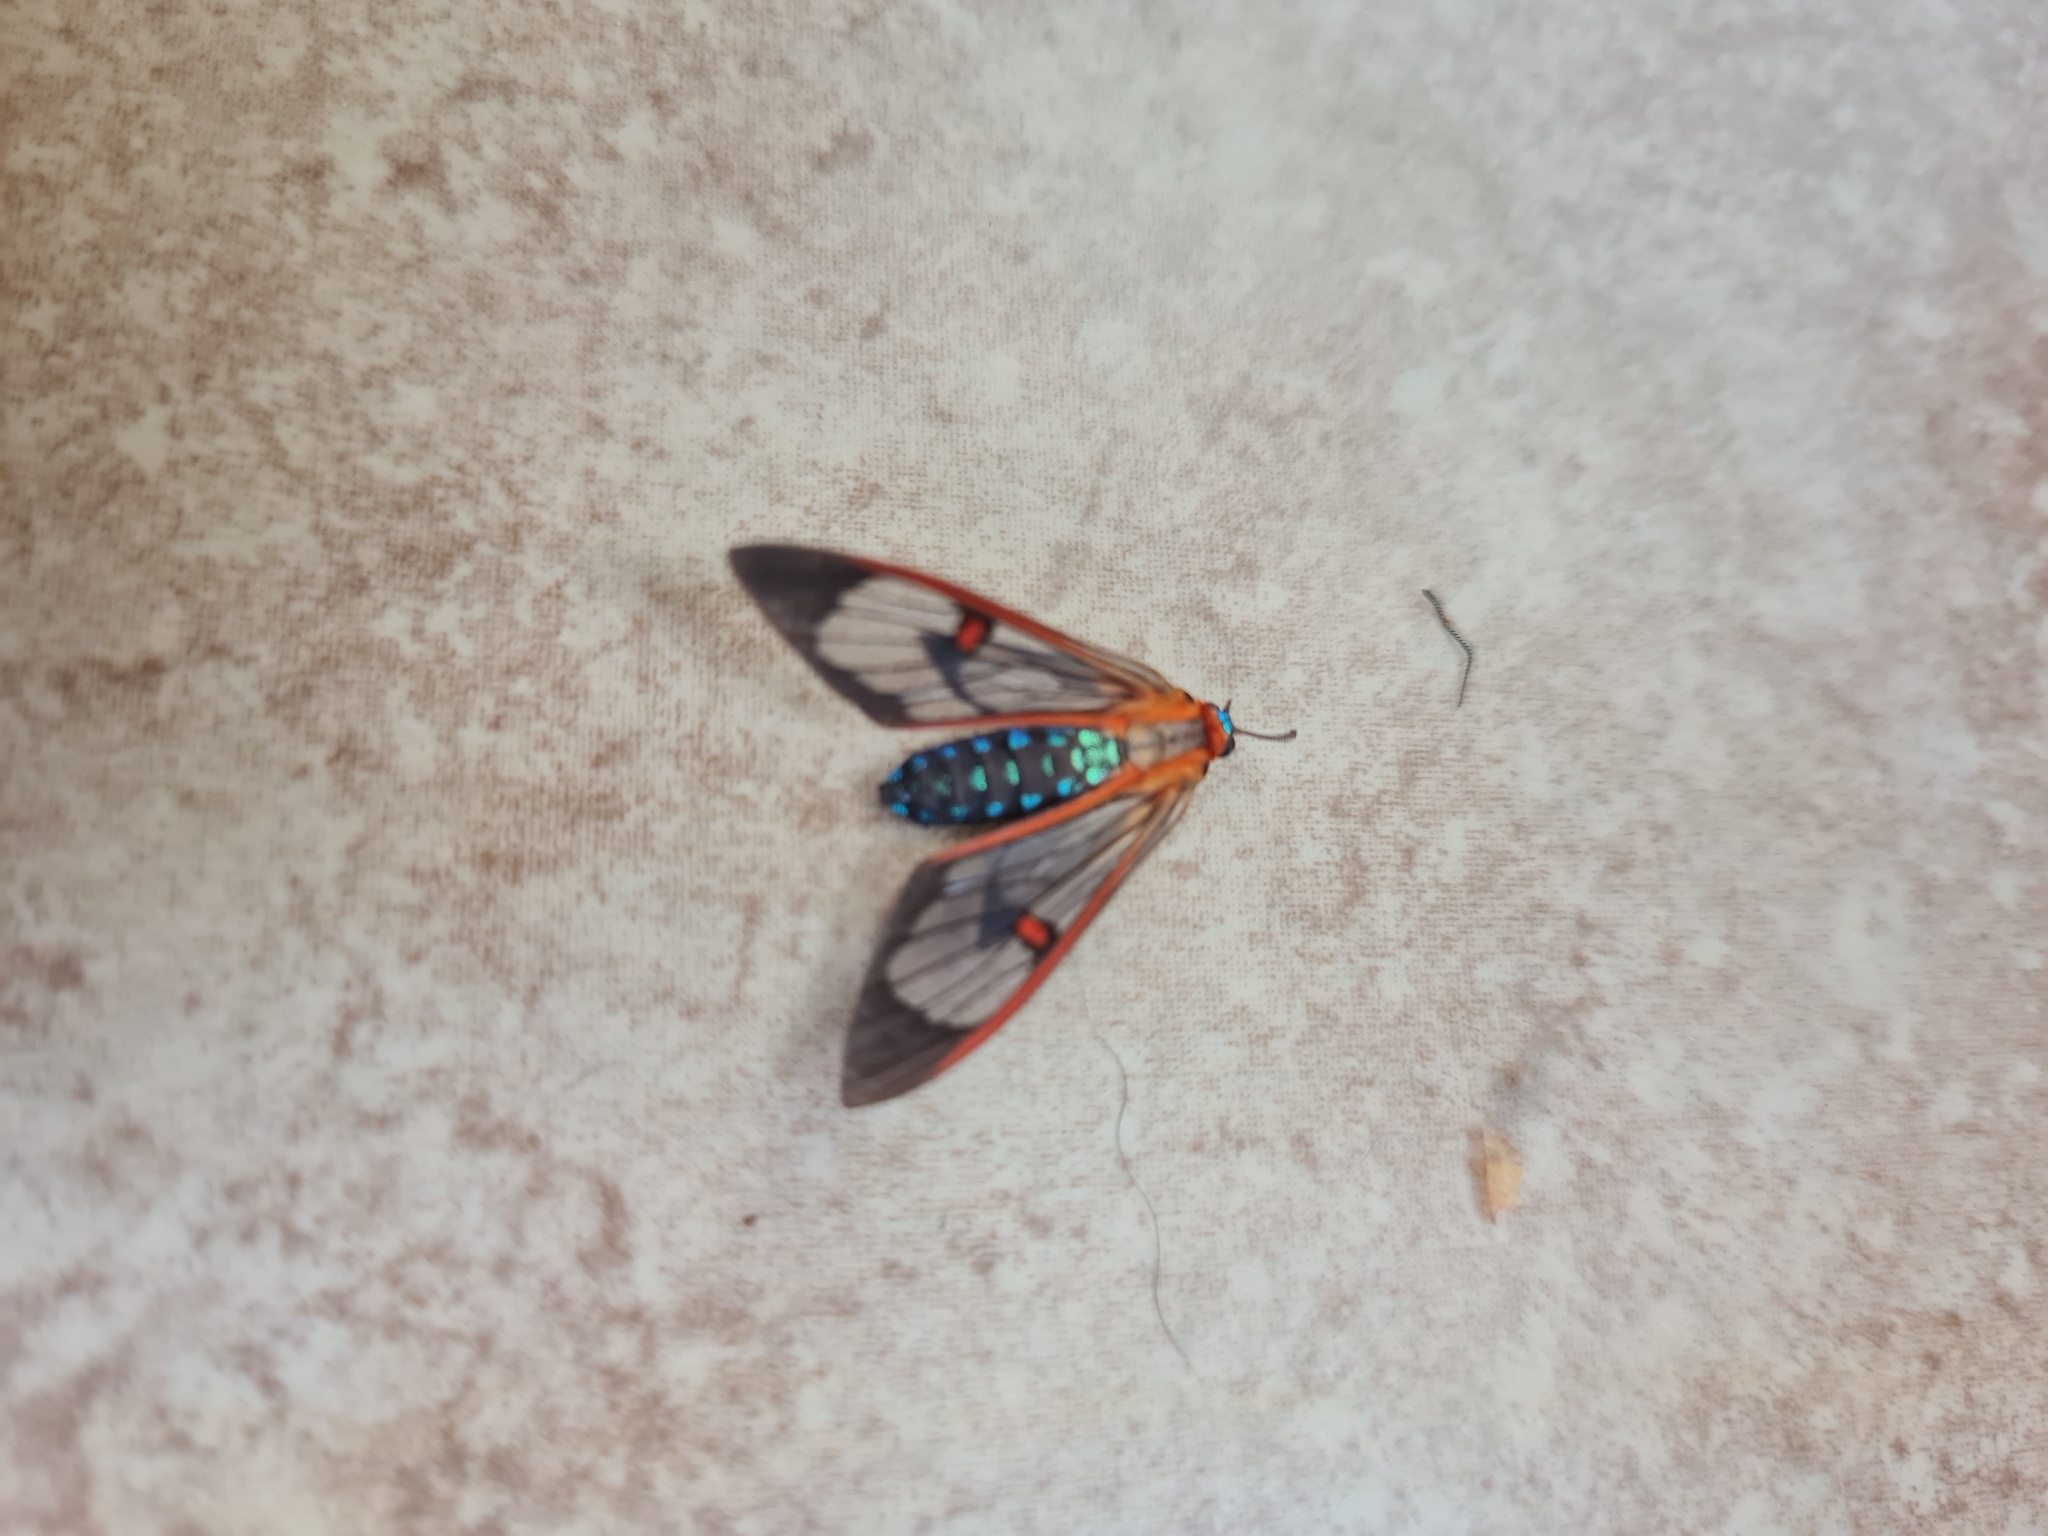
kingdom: Animalia
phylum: Arthropoda
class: Insecta
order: Lepidoptera
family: Erebidae
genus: Lepidoneiva
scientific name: Lepidoneiva erubescens
